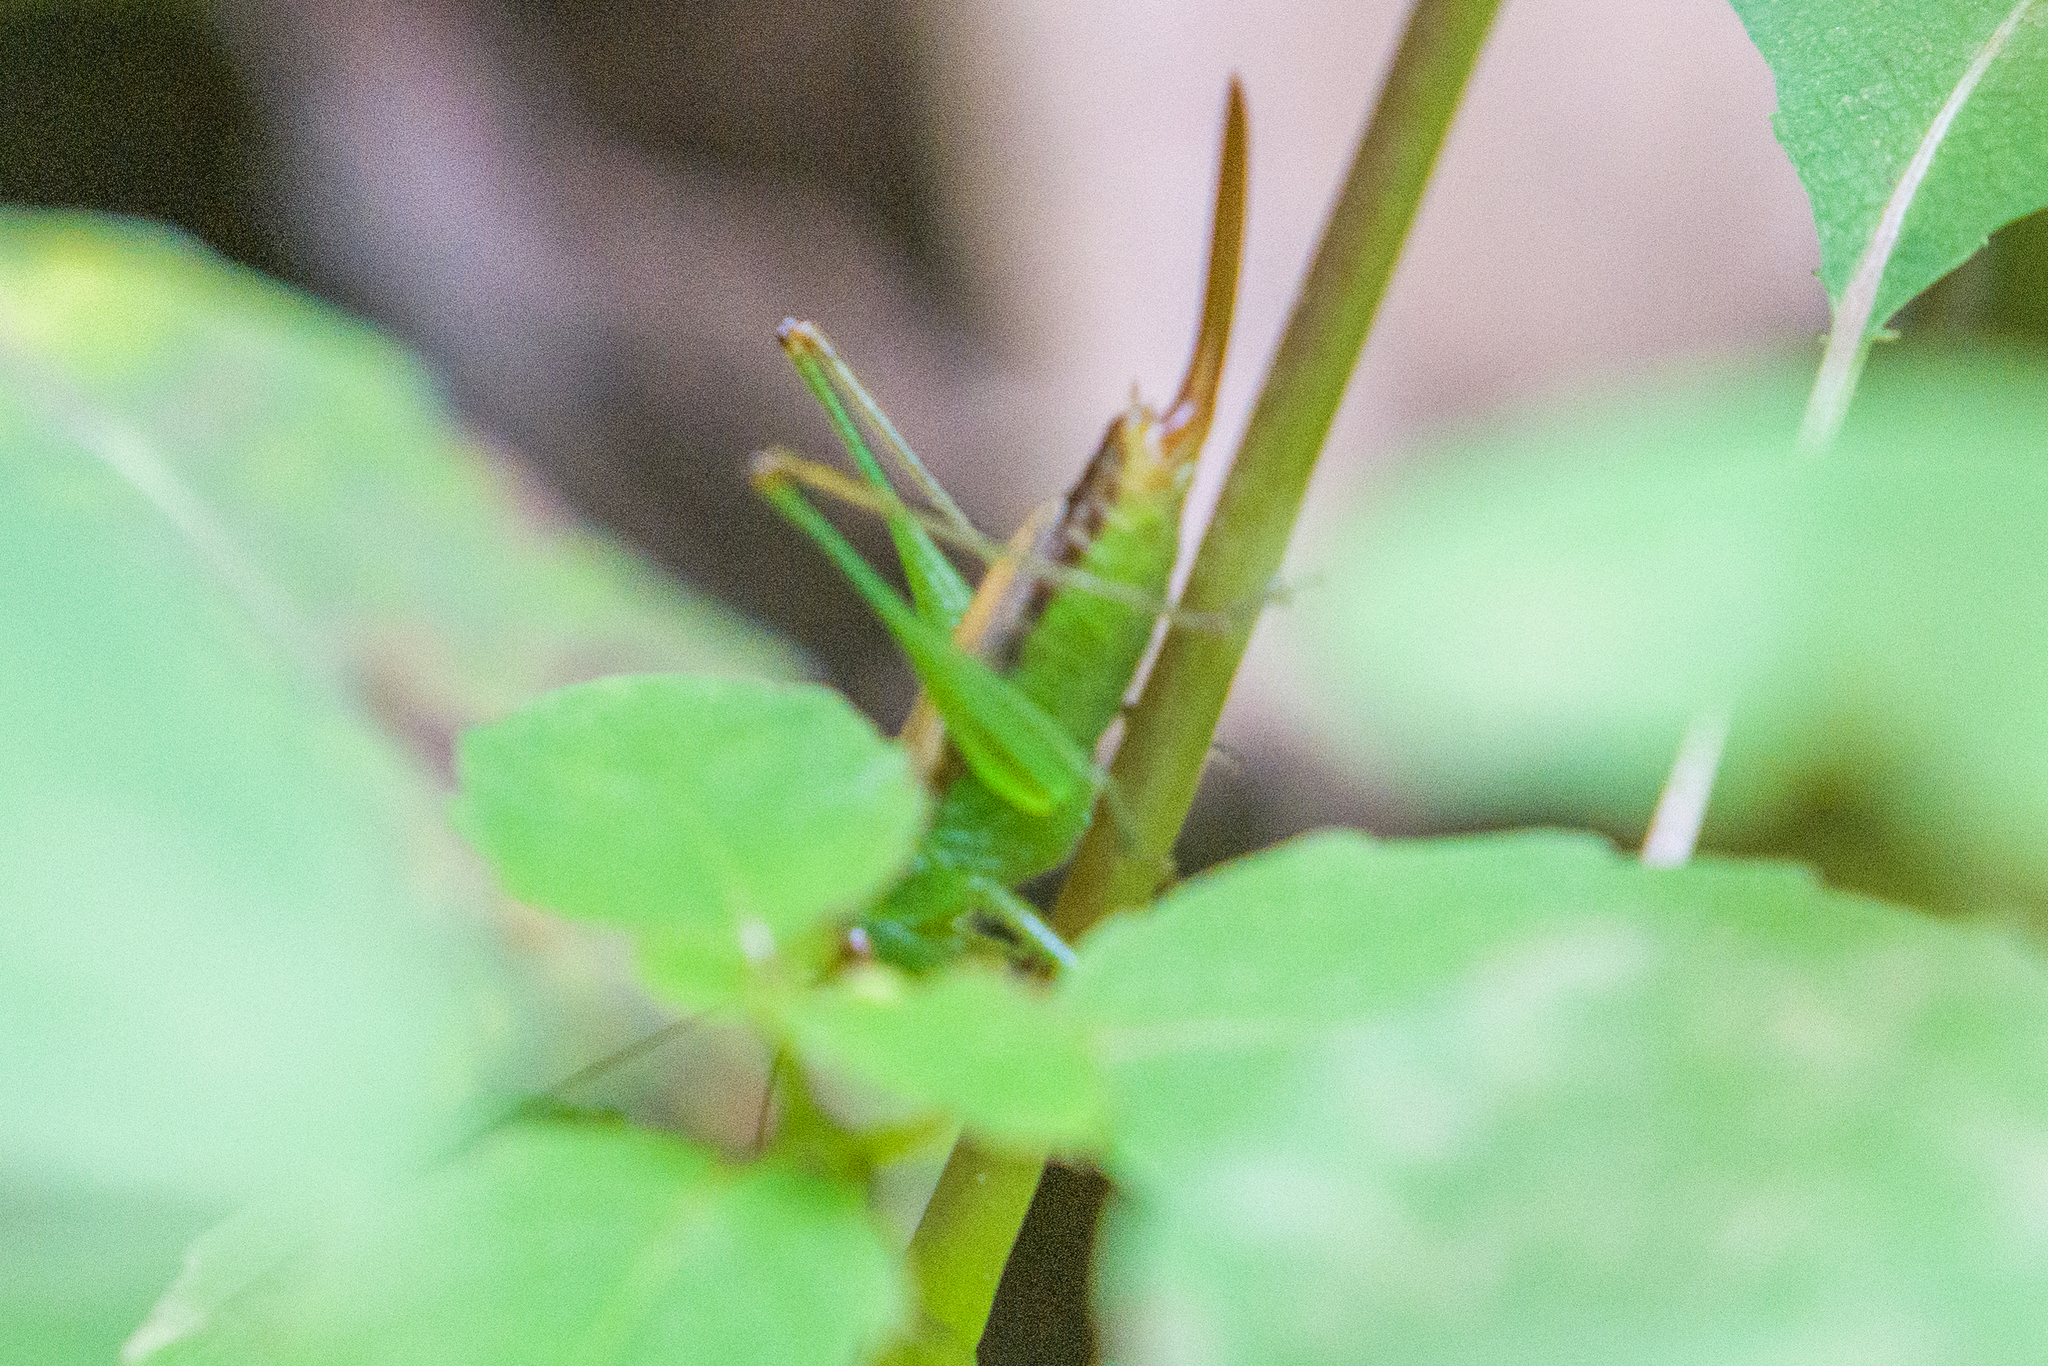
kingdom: Animalia
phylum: Arthropoda
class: Insecta
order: Orthoptera
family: Tettigoniidae
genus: Conocephalus
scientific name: Conocephalus brevipennis
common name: Short-winged meadow katydid
